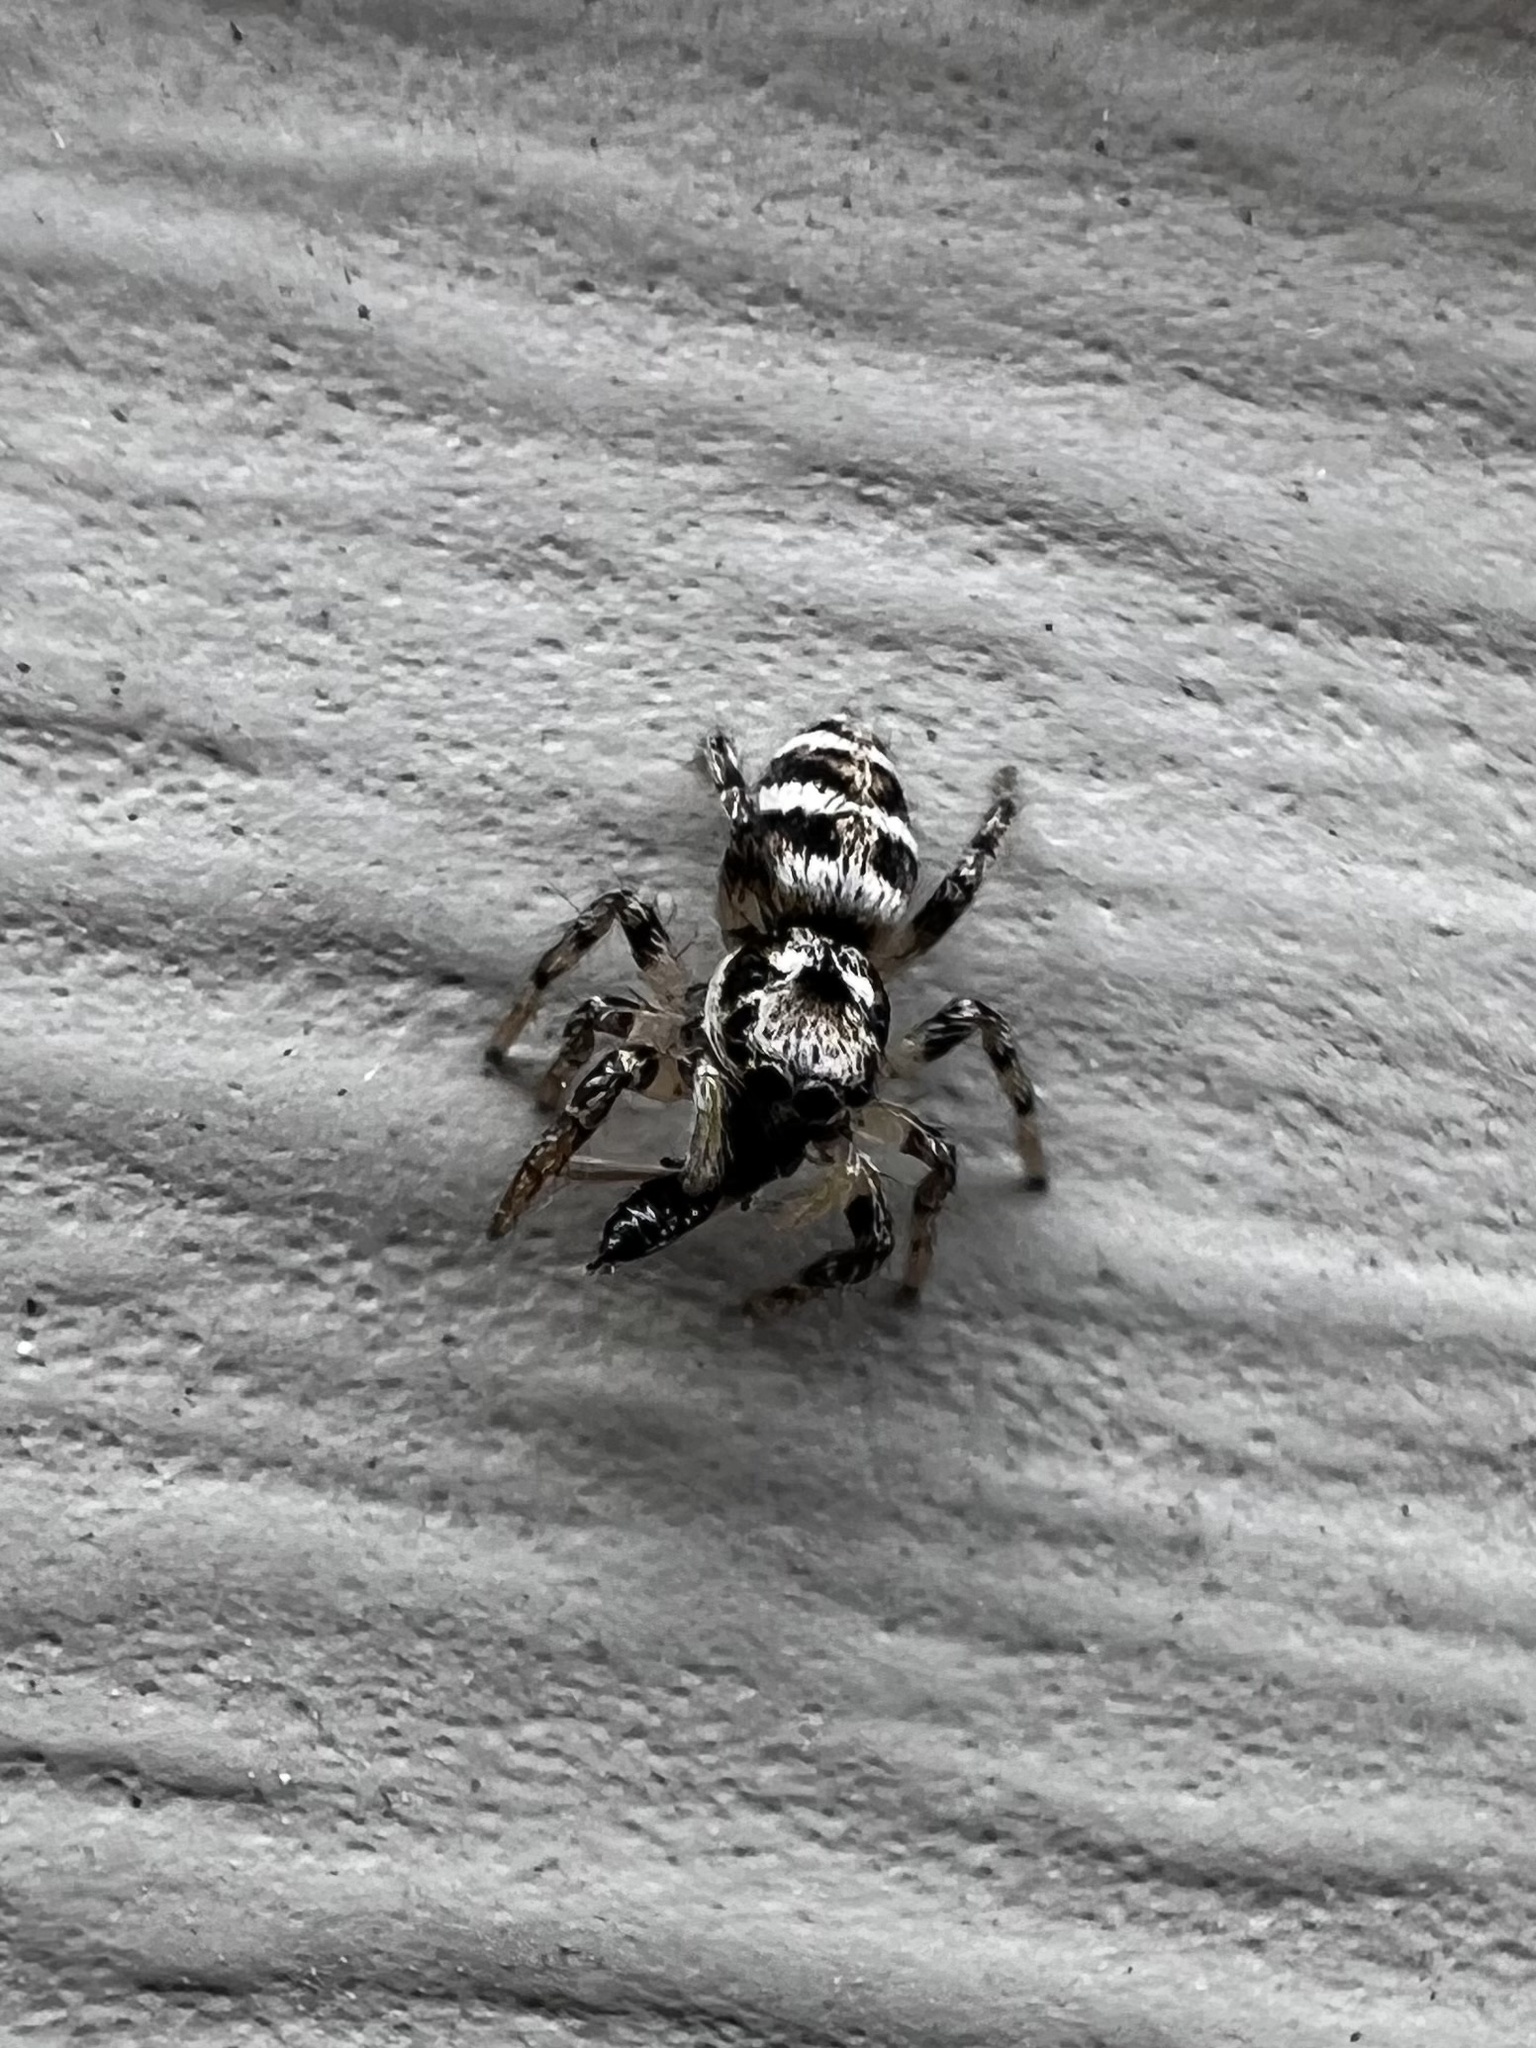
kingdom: Animalia
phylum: Arthropoda
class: Arachnida
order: Araneae
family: Salticidae
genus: Salticus
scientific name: Salticus scenicus
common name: Zebra jumper
